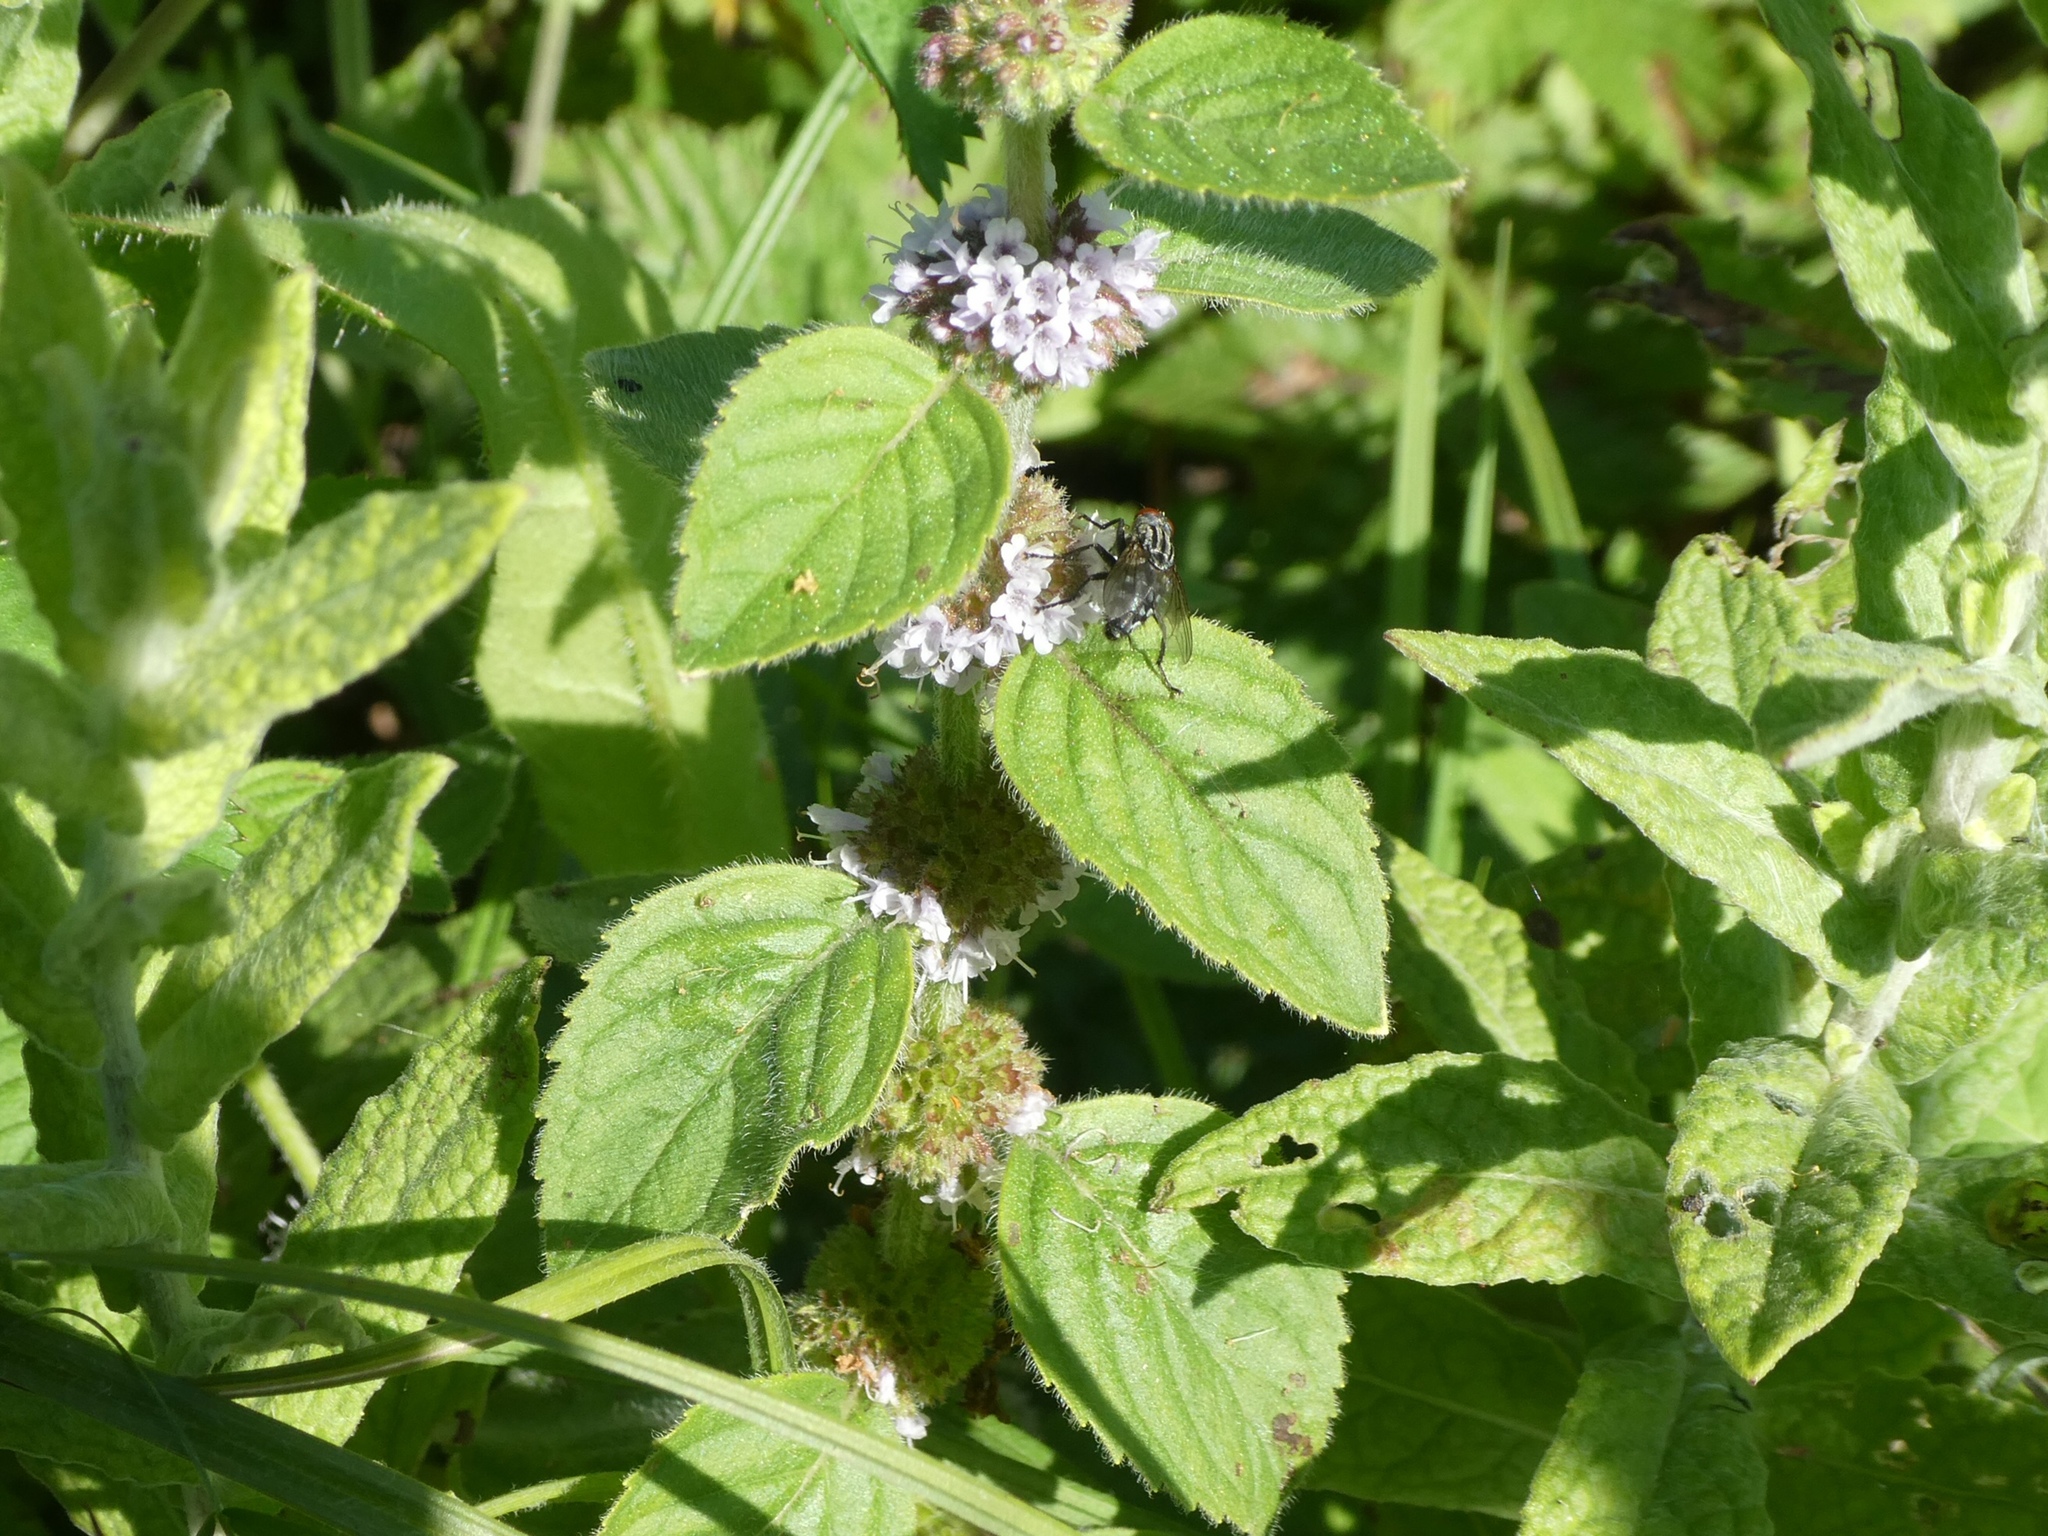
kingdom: Plantae
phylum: Tracheophyta
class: Magnoliopsida
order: Lamiales
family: Lamiaceae
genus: Mentha
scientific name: Mentha arvensis
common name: Corn mint
